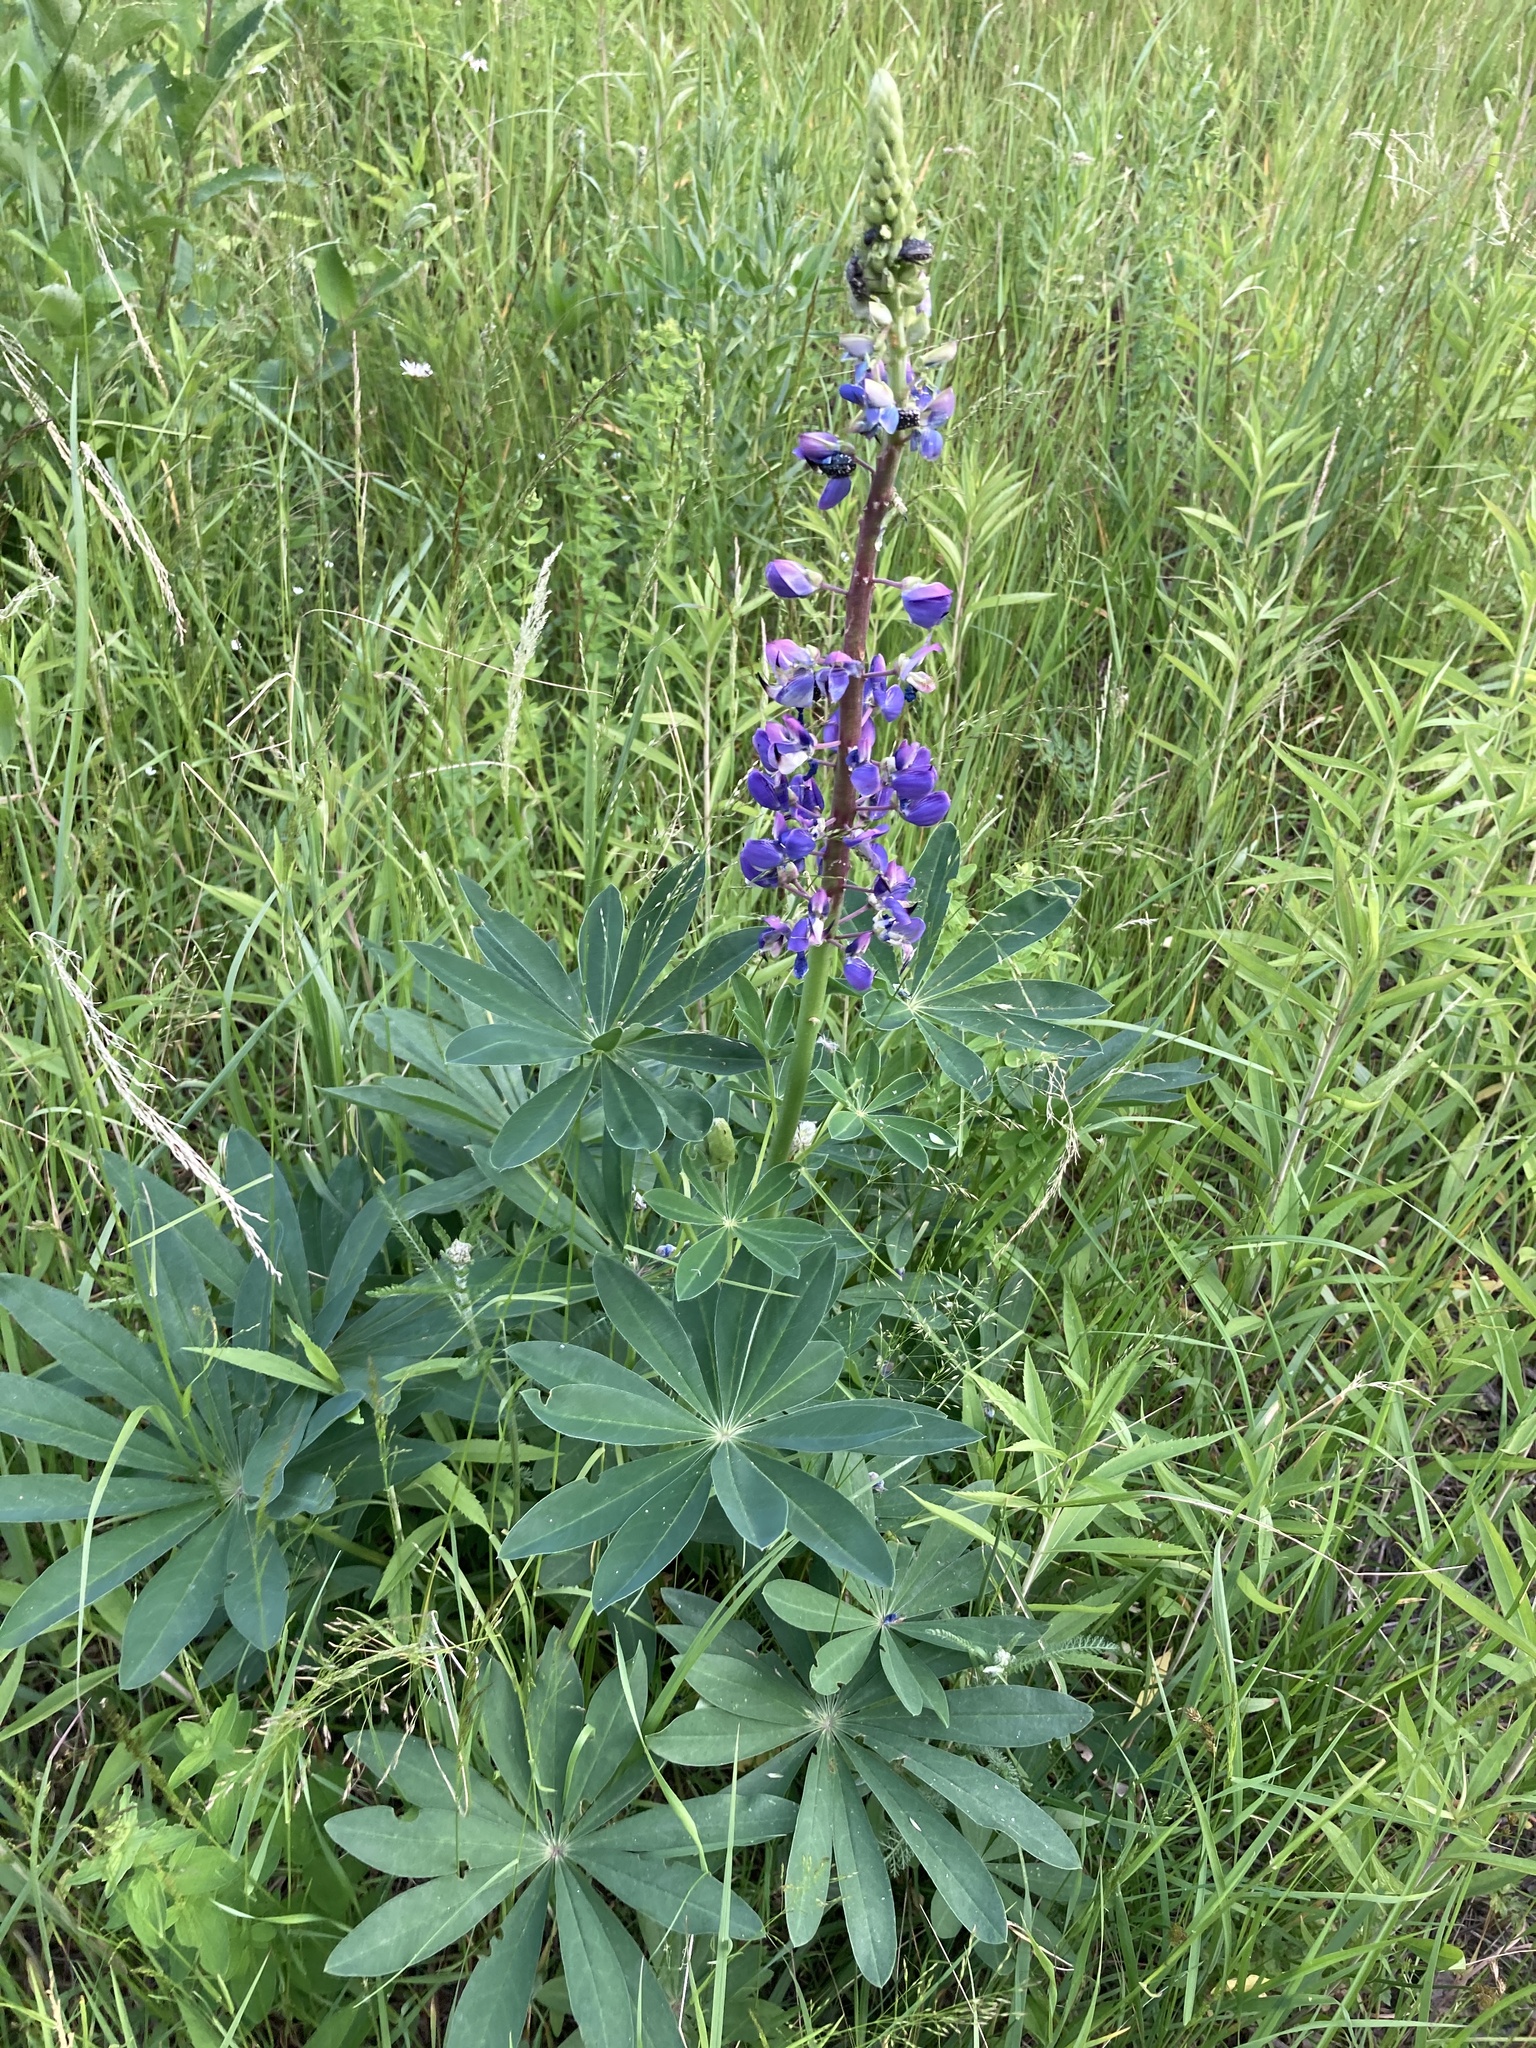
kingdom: Plantae
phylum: Tracheophyta
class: Magnoliopsida
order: Fabales
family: Fabaceae
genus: Lupinus
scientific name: Lupinus polyphyllus
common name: Garden lupin
